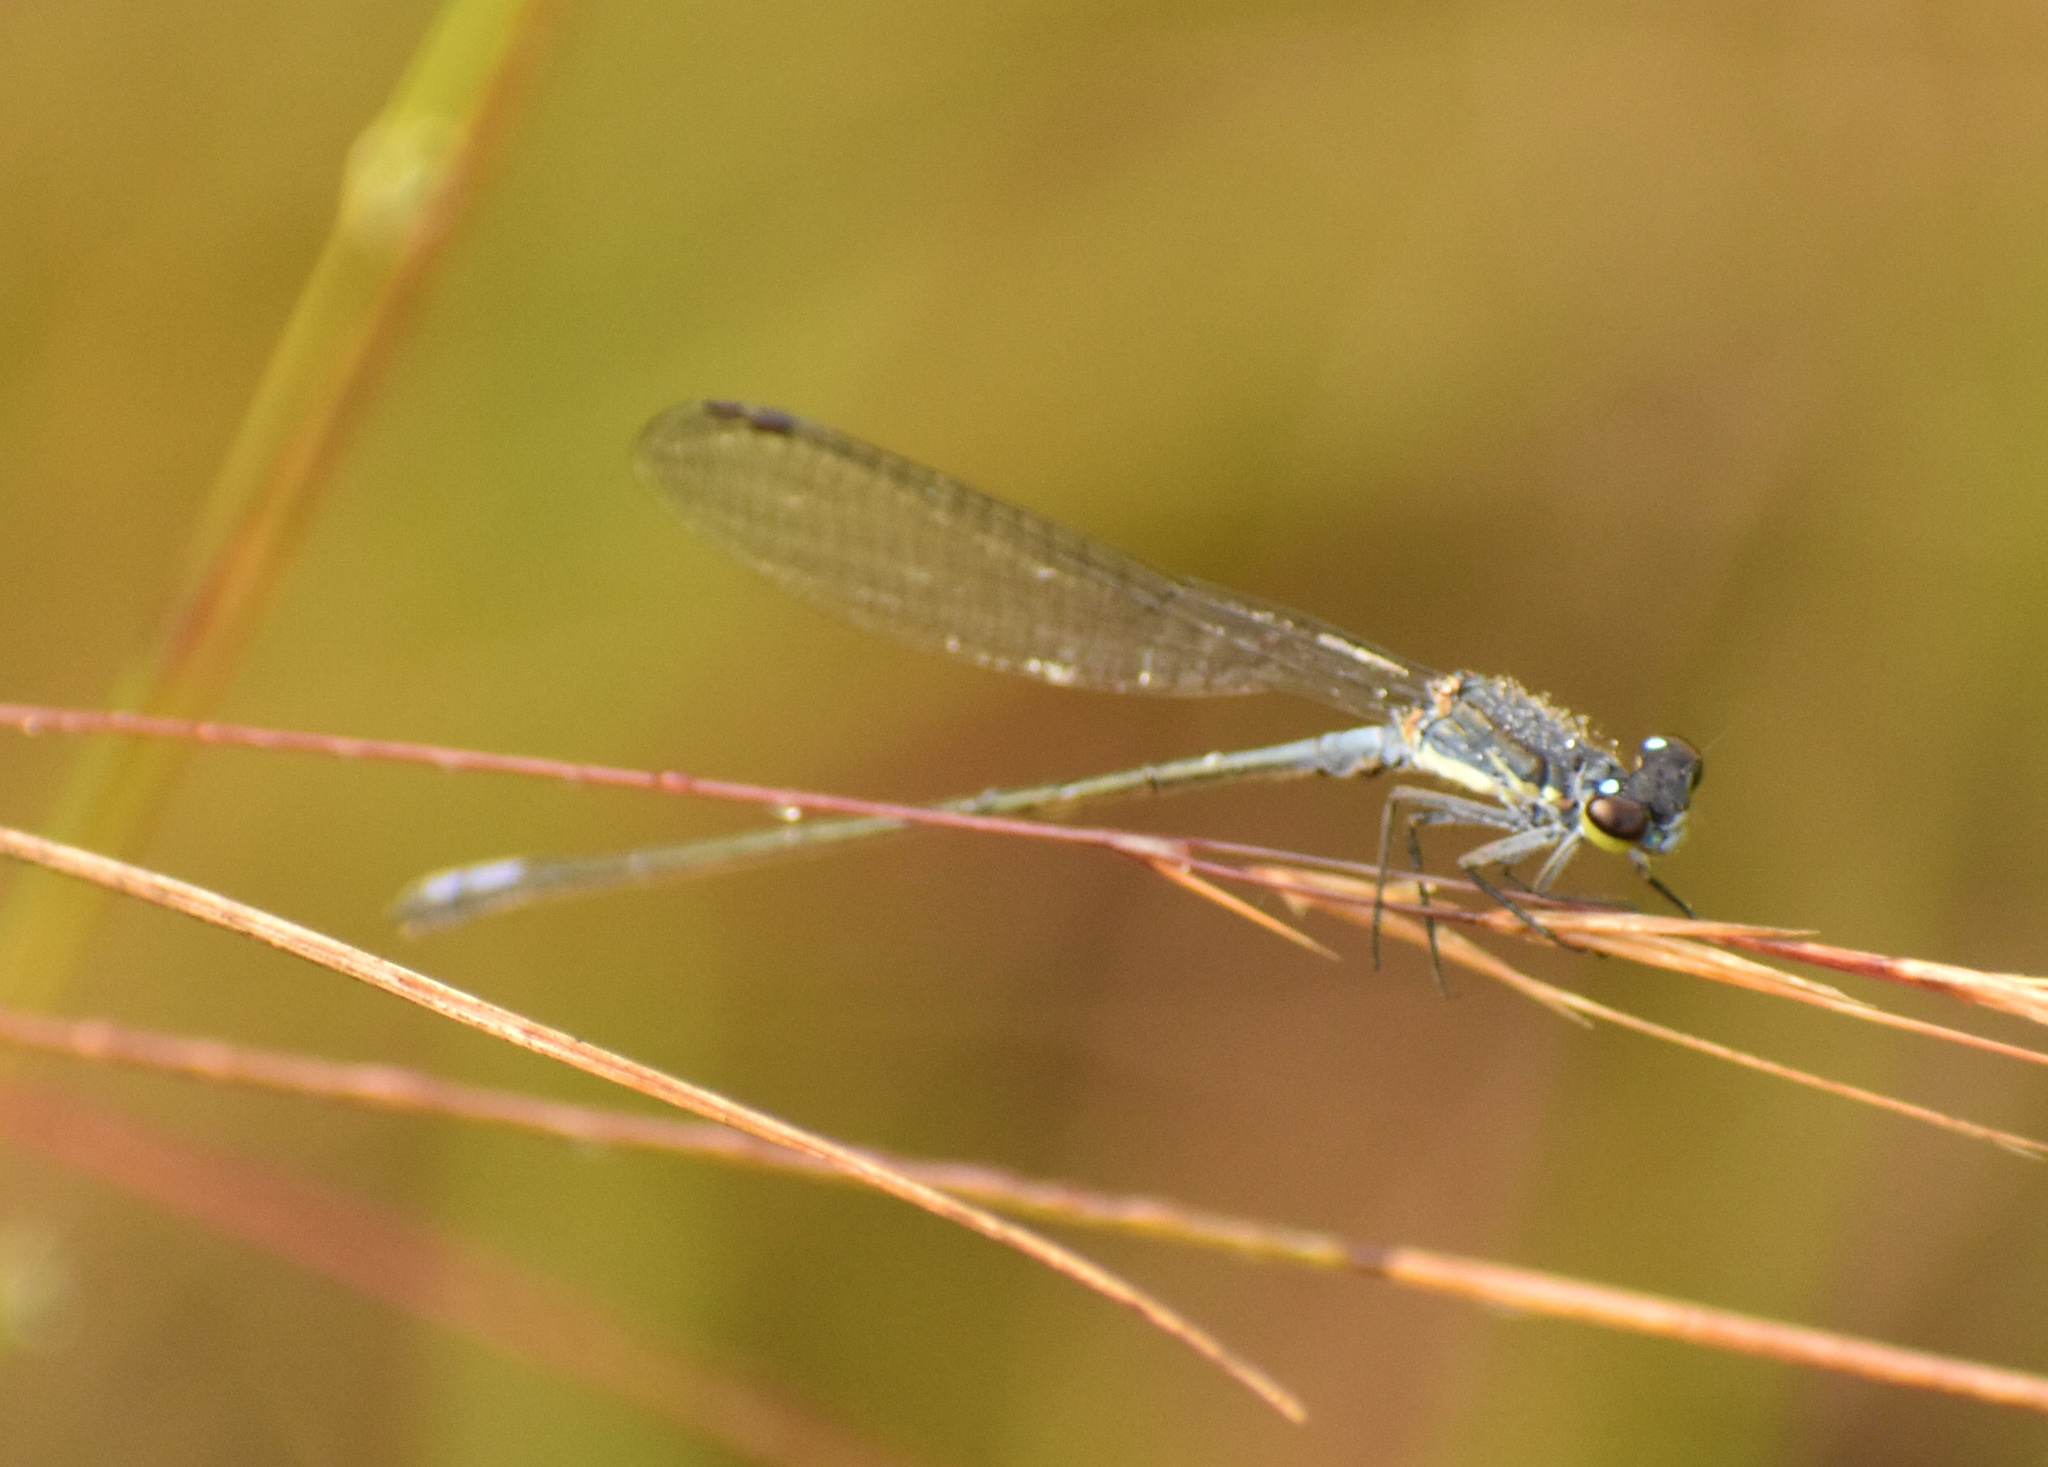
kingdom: Animalia
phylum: Arthropoda
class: Insecta
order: Odonata
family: Coenagrionidae
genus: Pseudagrion
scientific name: Pseudagrion salisburyense
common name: Slate sprite
